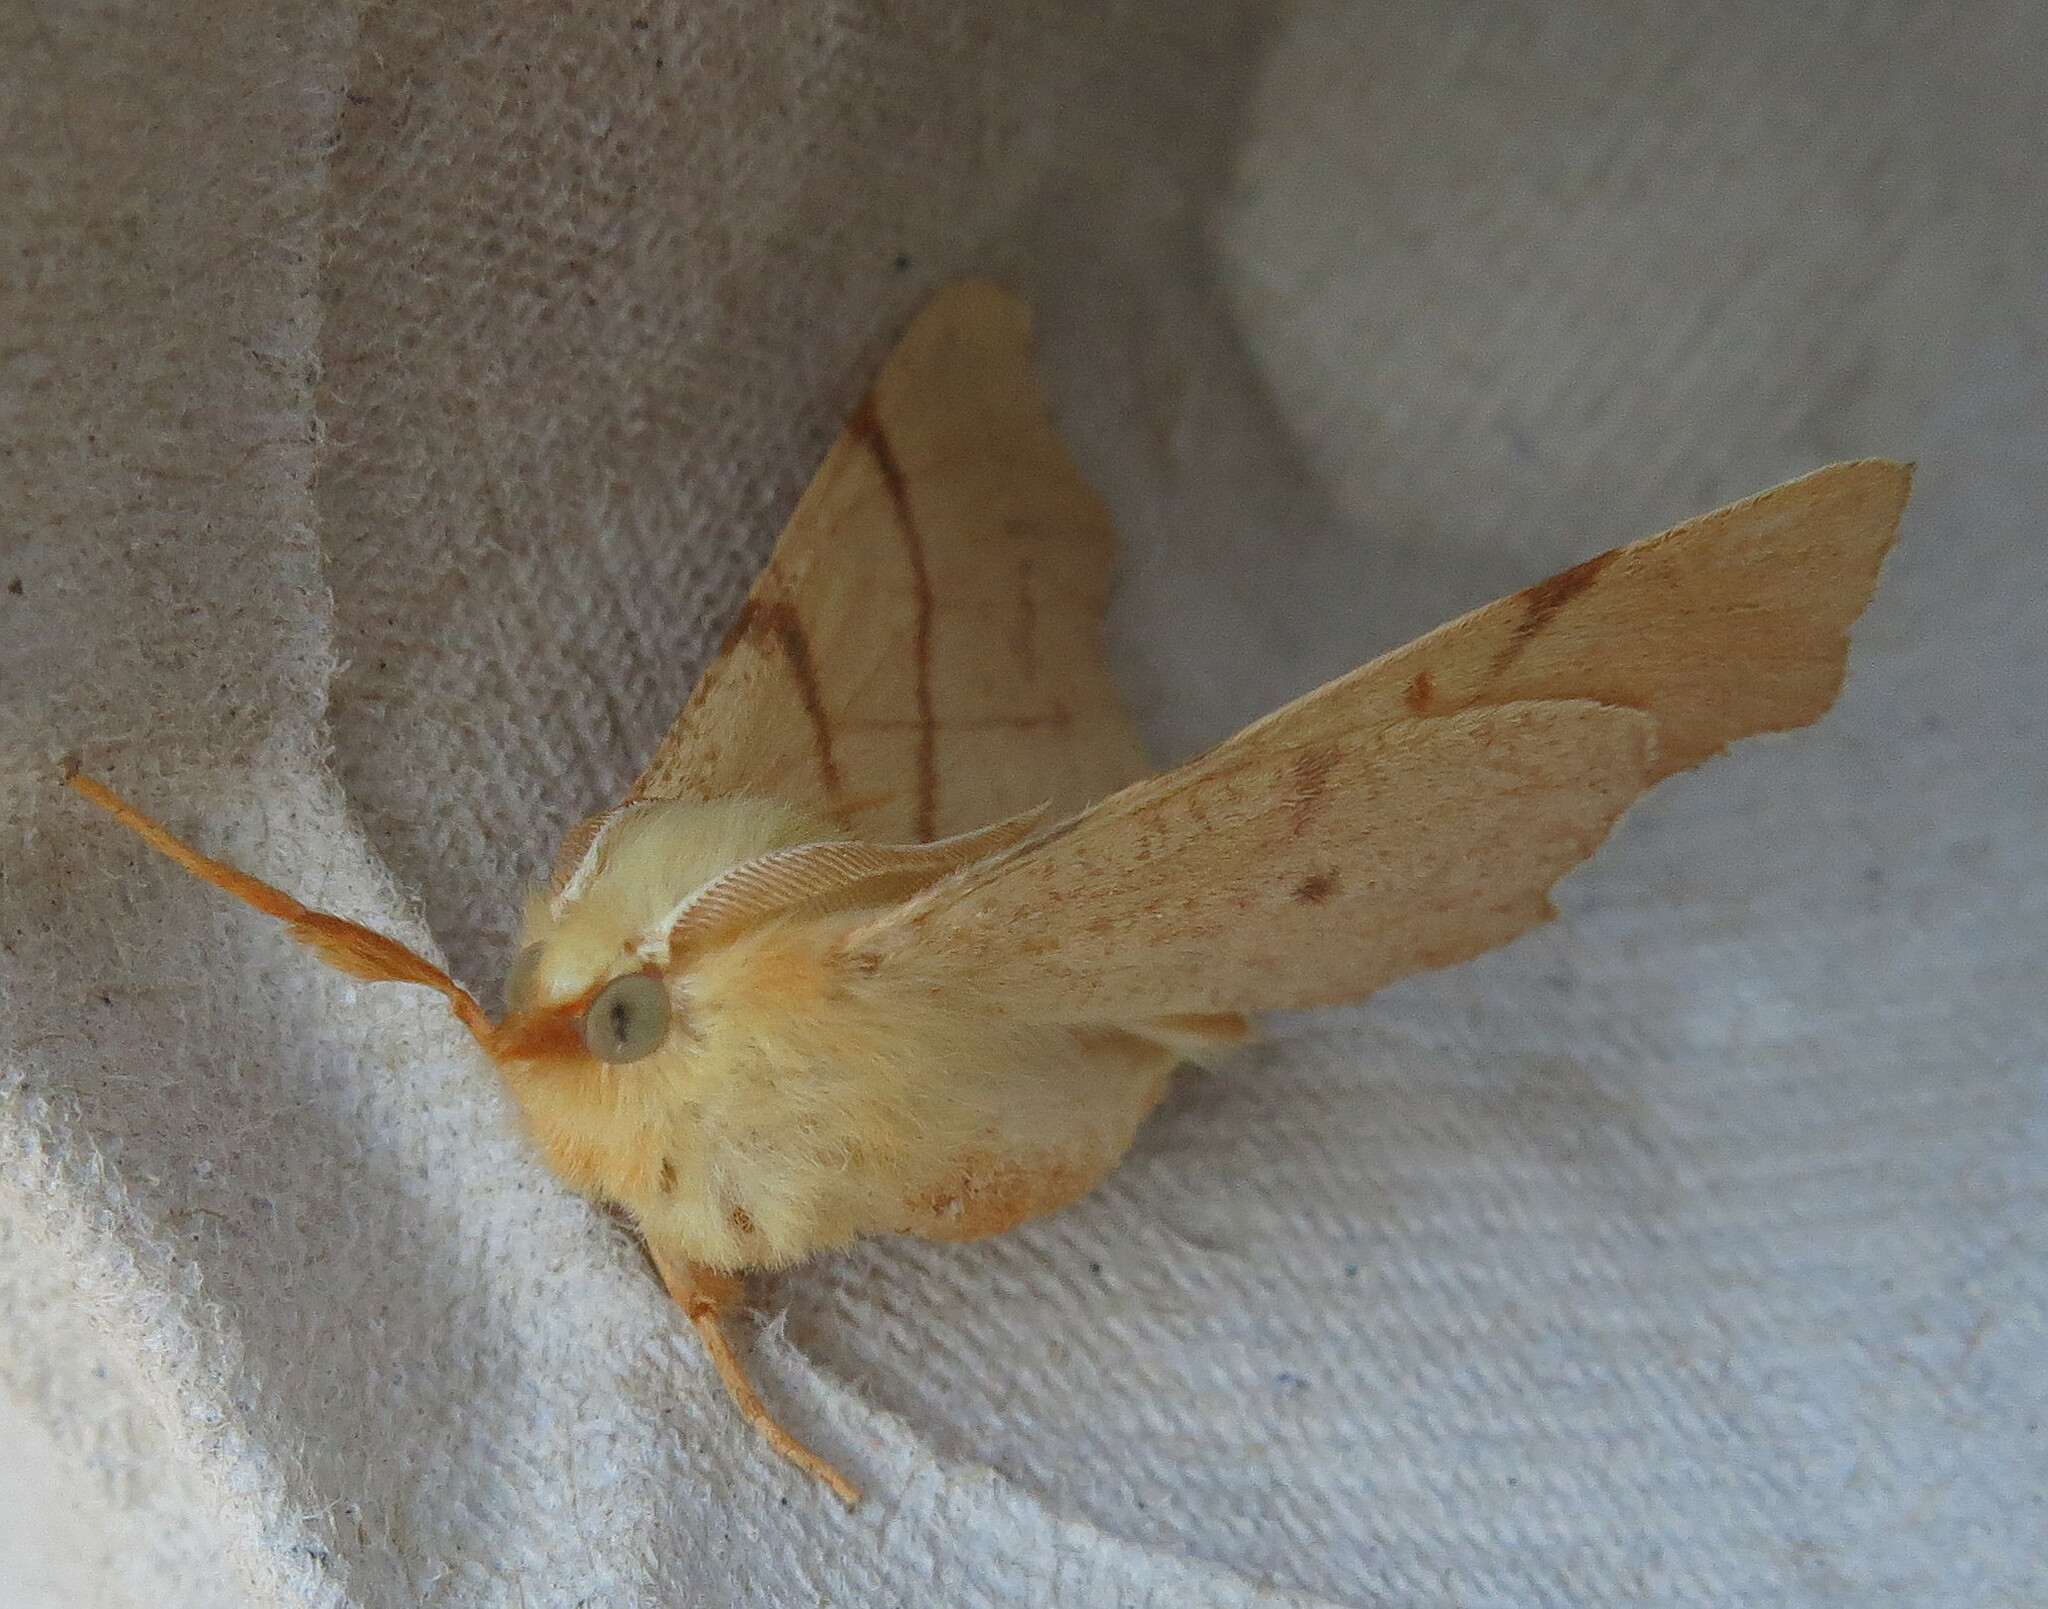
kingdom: Animalia
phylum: Arthropoda
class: Insecta
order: Lepidoptera
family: Geometridae
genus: Ennomos
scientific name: Ennomos erosaria
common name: September thorn
